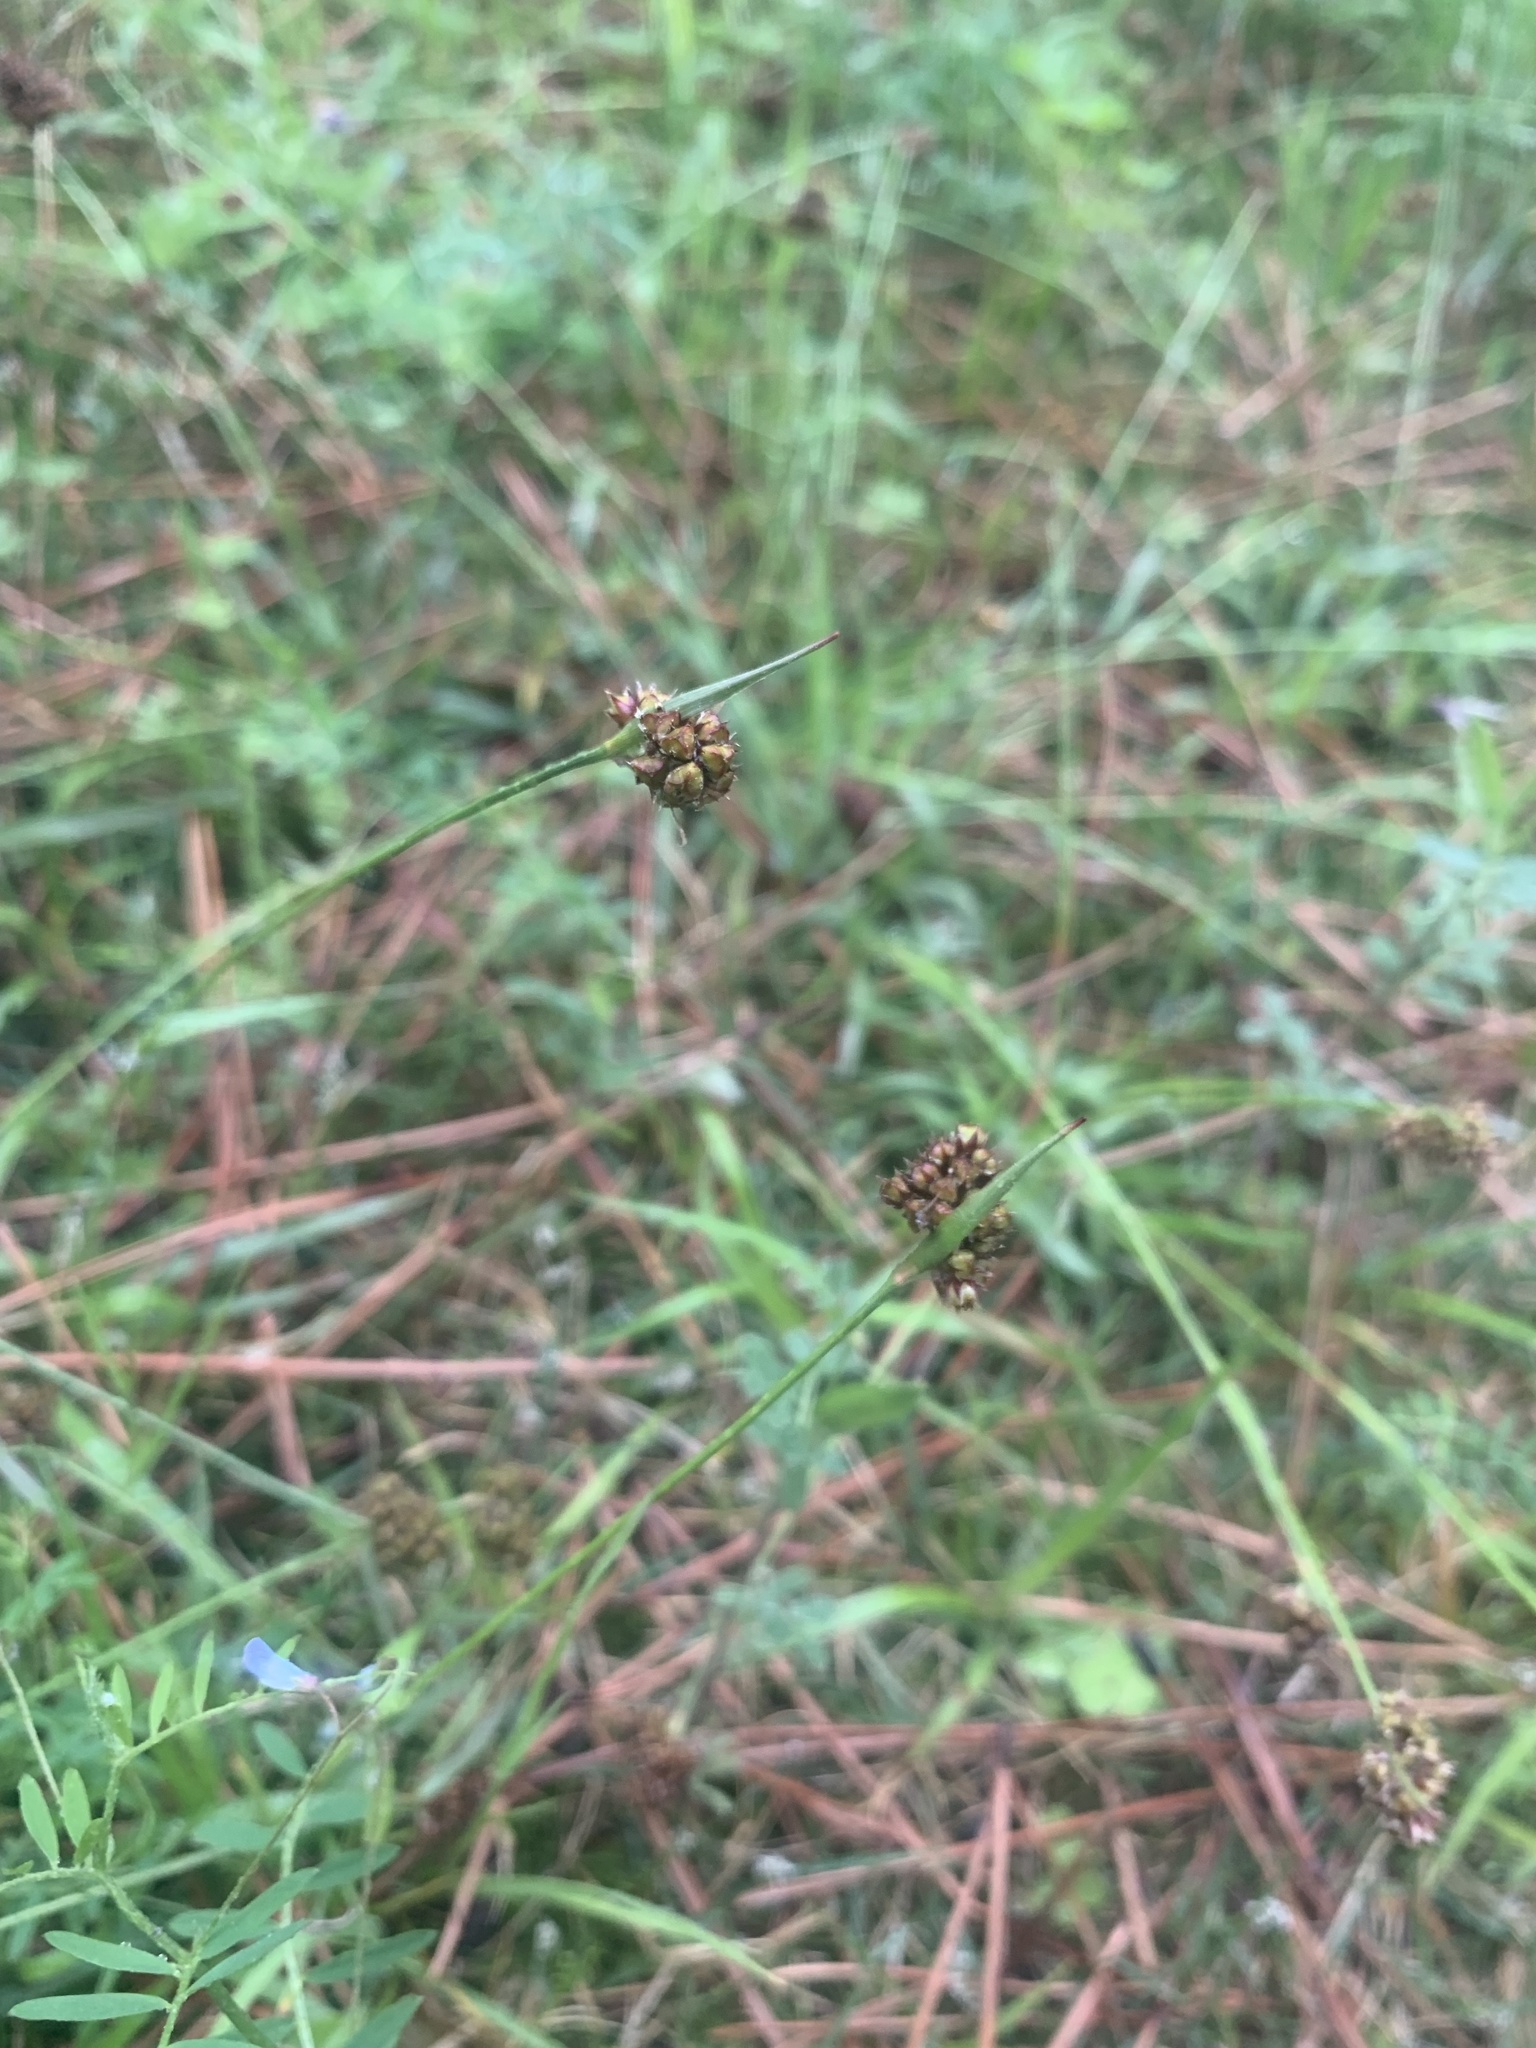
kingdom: Plantae
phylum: Tracheophyta
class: Liliopsida
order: Poales
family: Juncaceae
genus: Luzula
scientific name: Luzula capitata
